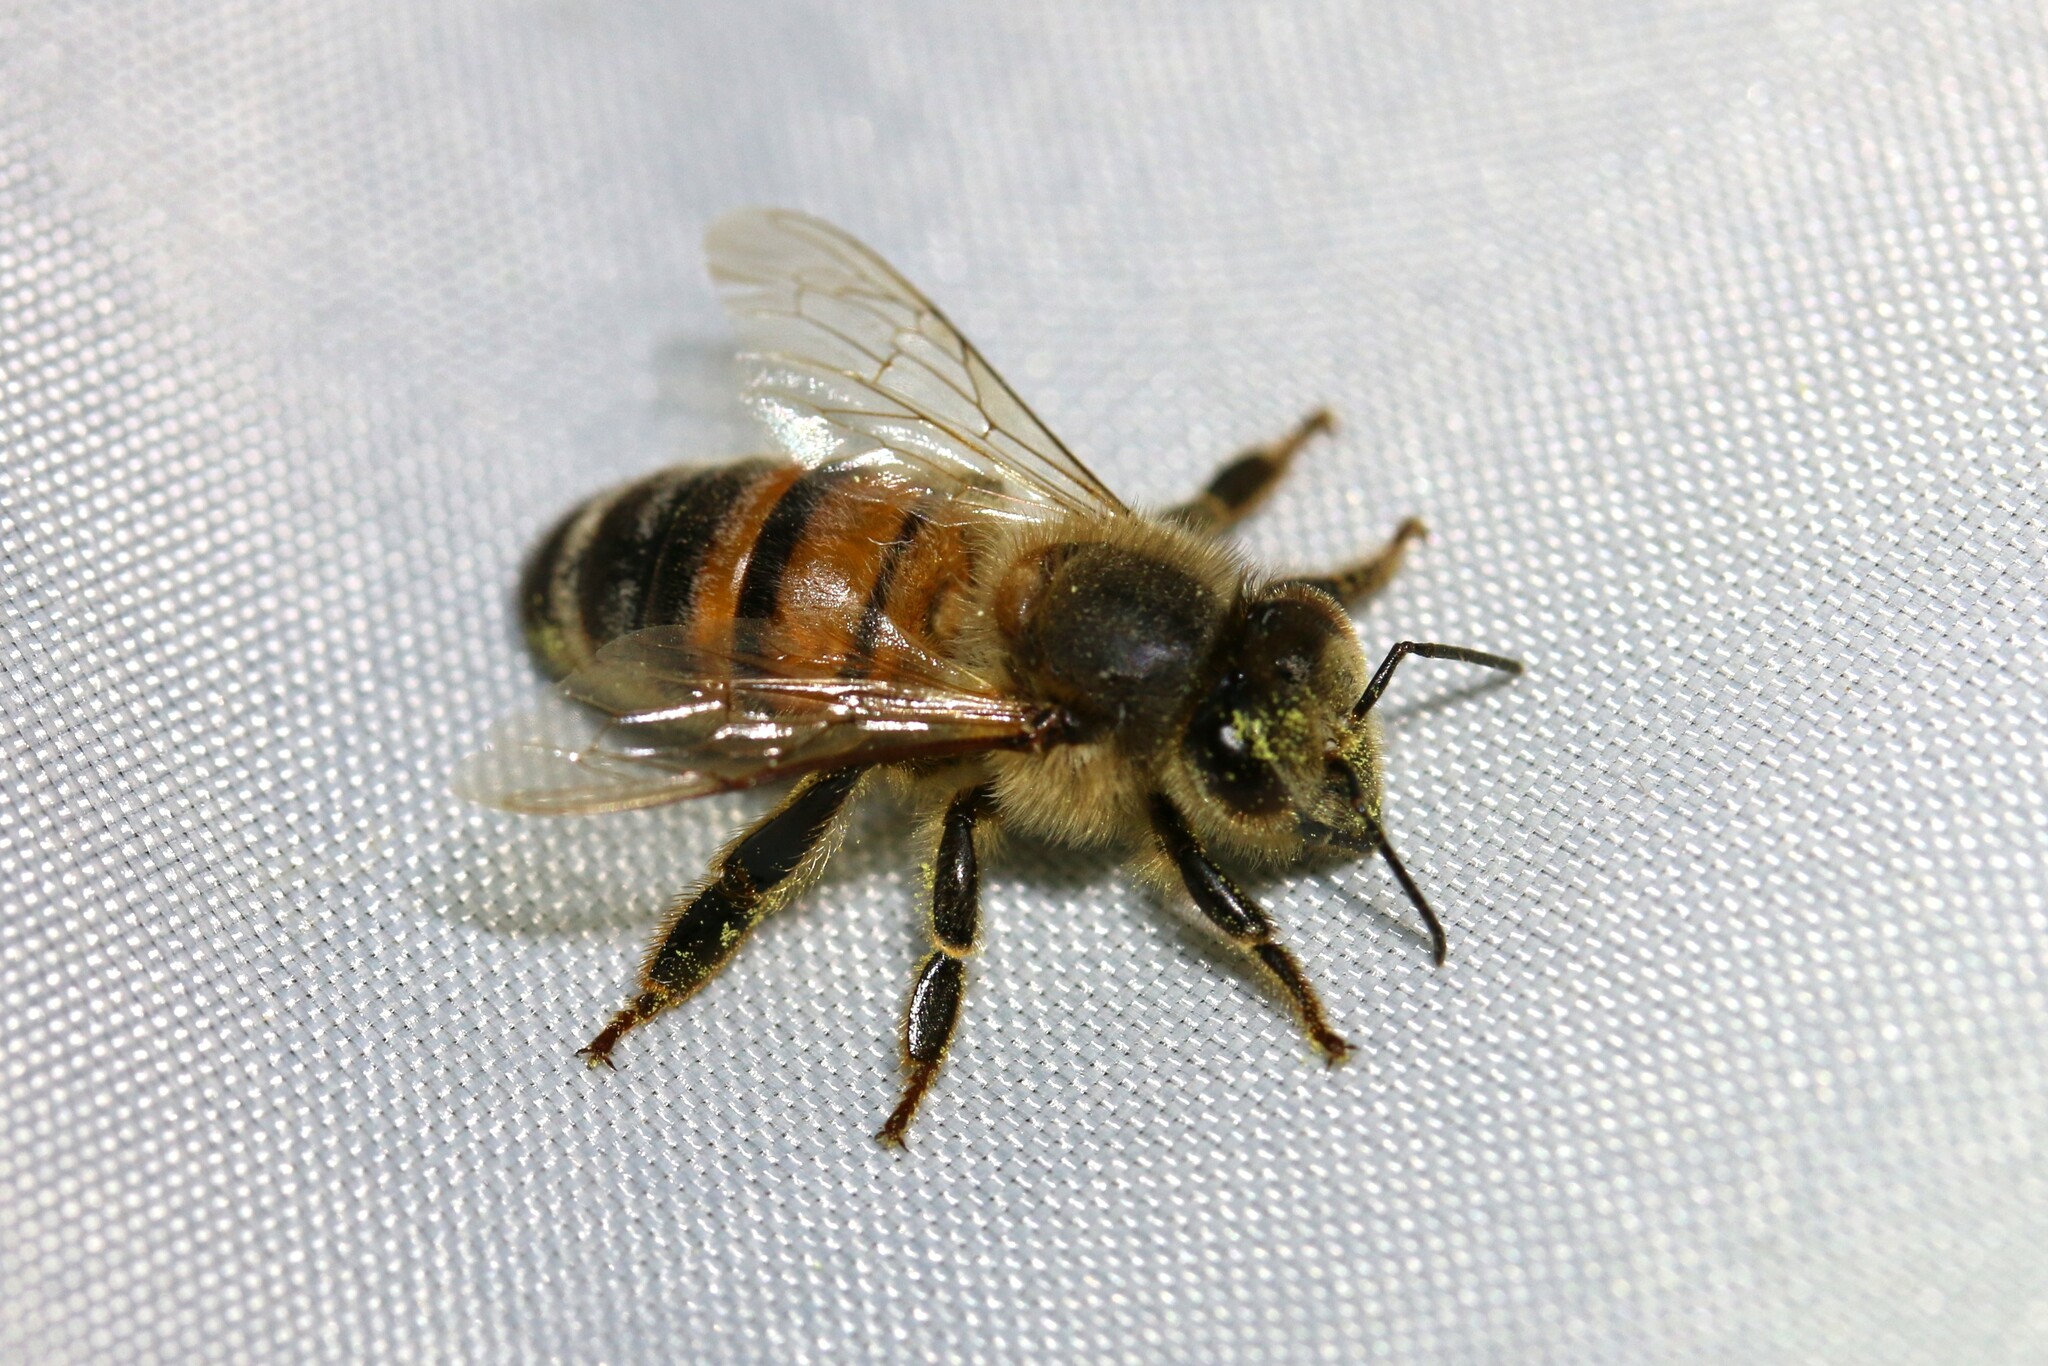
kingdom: Animalia
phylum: Arthropoda
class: Insecta
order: Hymenoptera
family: Apidae
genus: Apis
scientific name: Apis mellifera
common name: Honey bee
